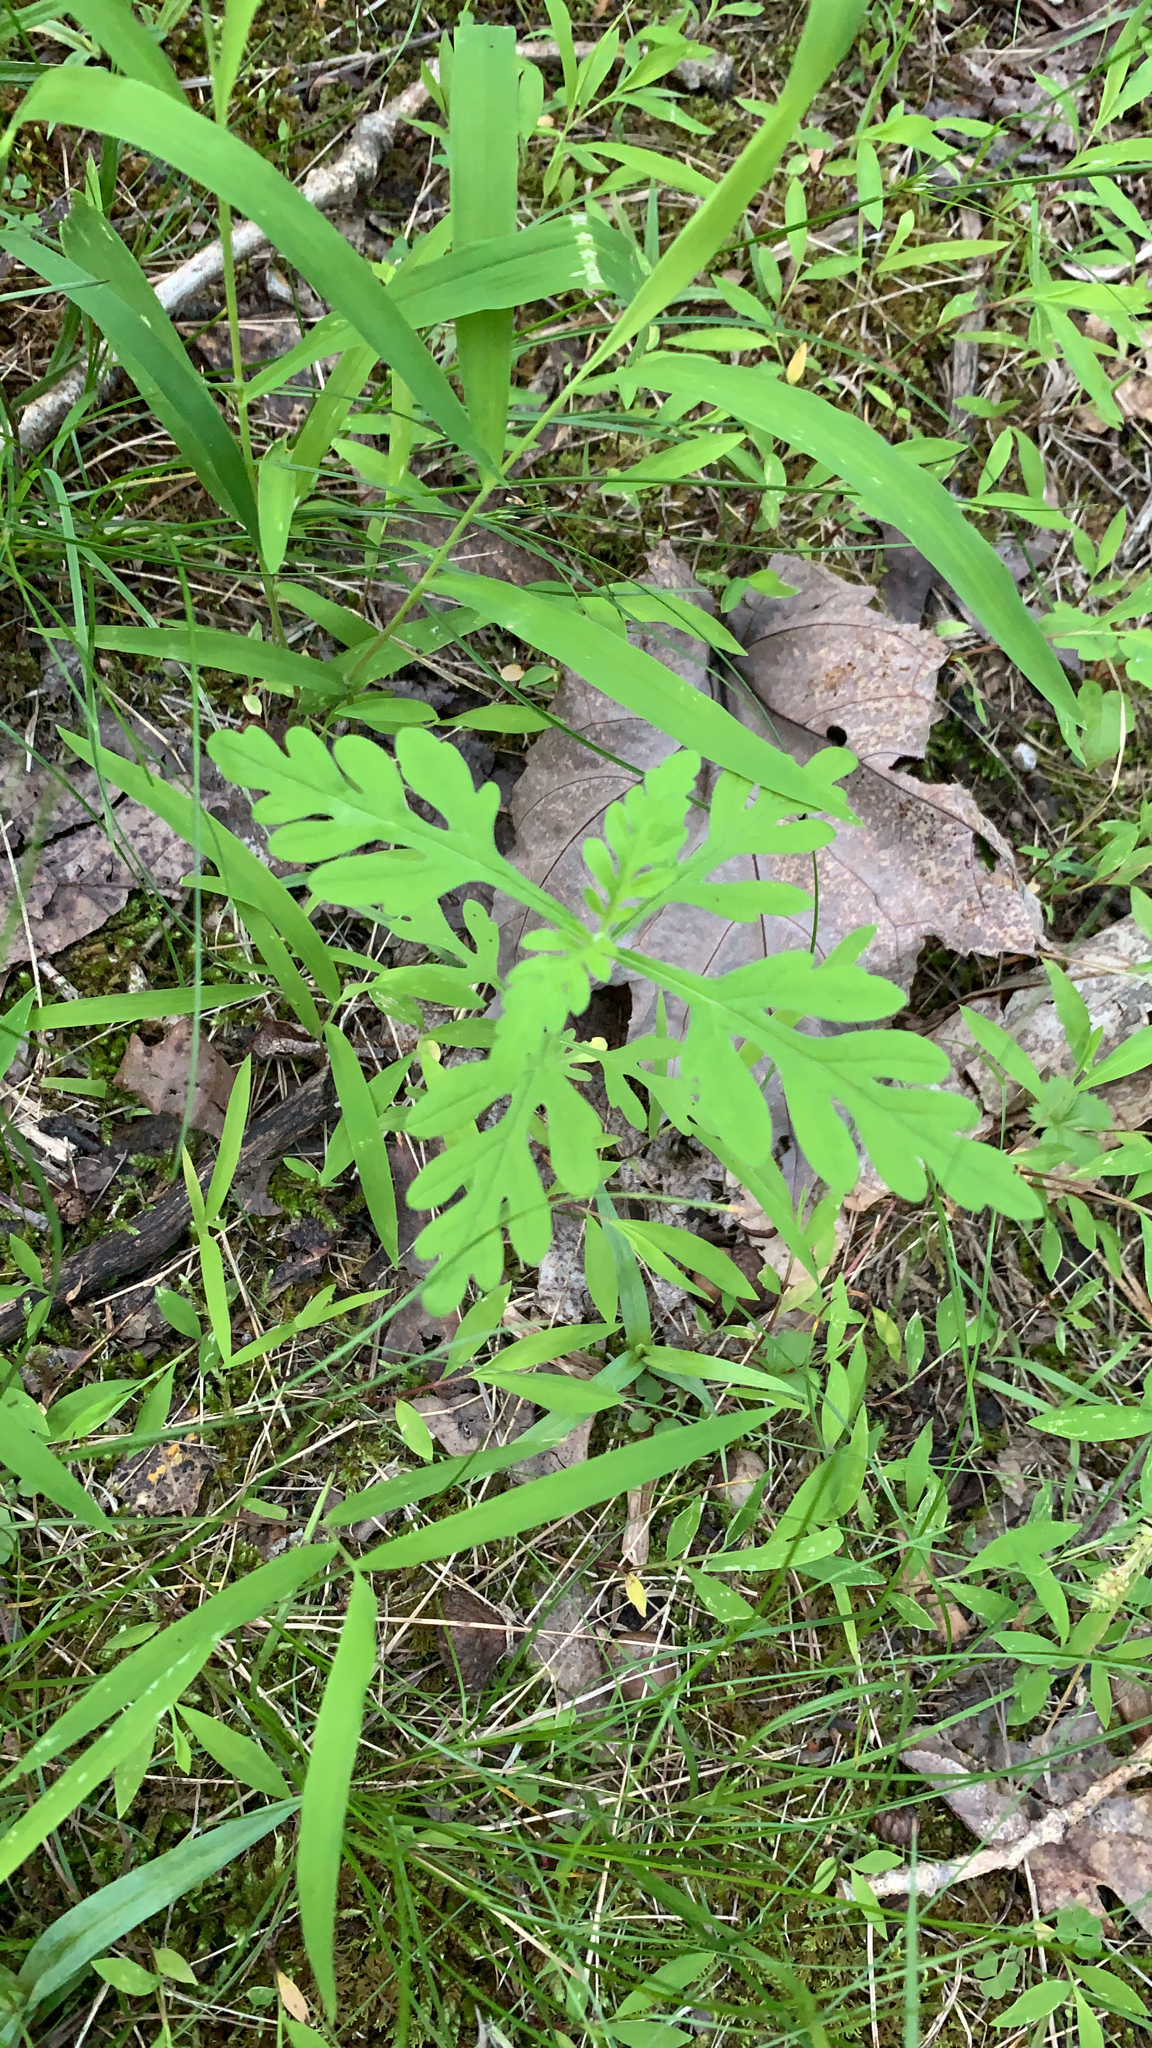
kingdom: Plantae
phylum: Tracheophyta
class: Magnoliopsida
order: Asterales
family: Asteraceae
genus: Ambrosia
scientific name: Ambrosia artemisiifolia
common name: Annual ragweed
